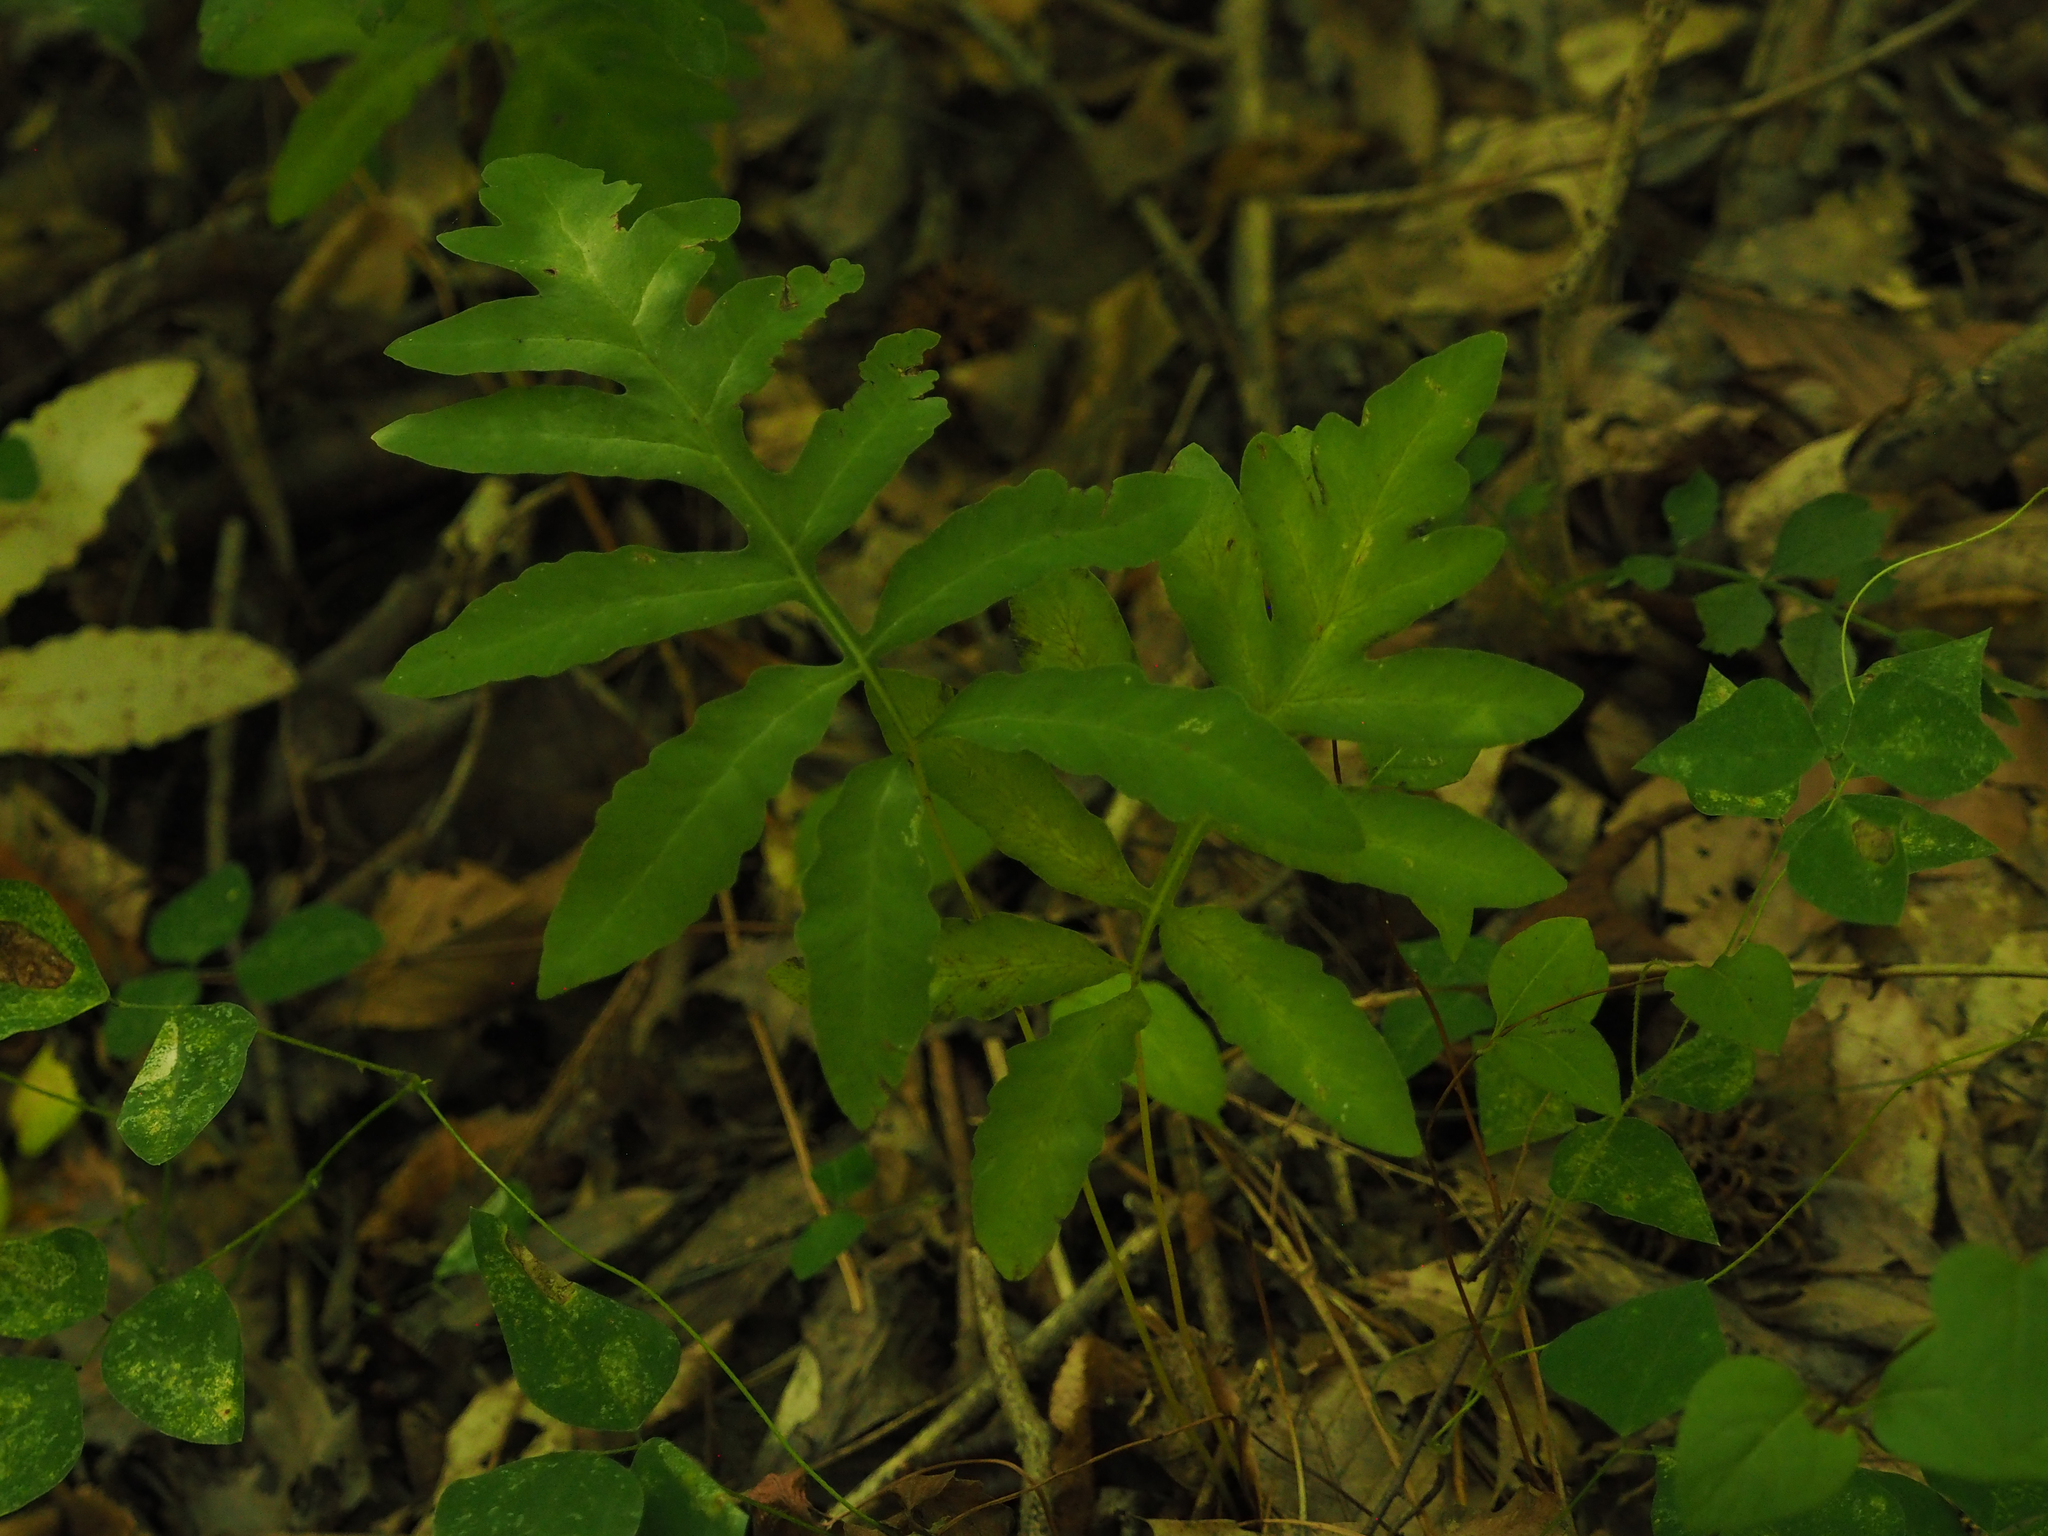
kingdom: Plantae
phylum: Tracheophyta
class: Polypodiopsida
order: Polypodiales
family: Onocleaceae
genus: Onoclea
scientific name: Onoclea sensibilis
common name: Sensitive fern
